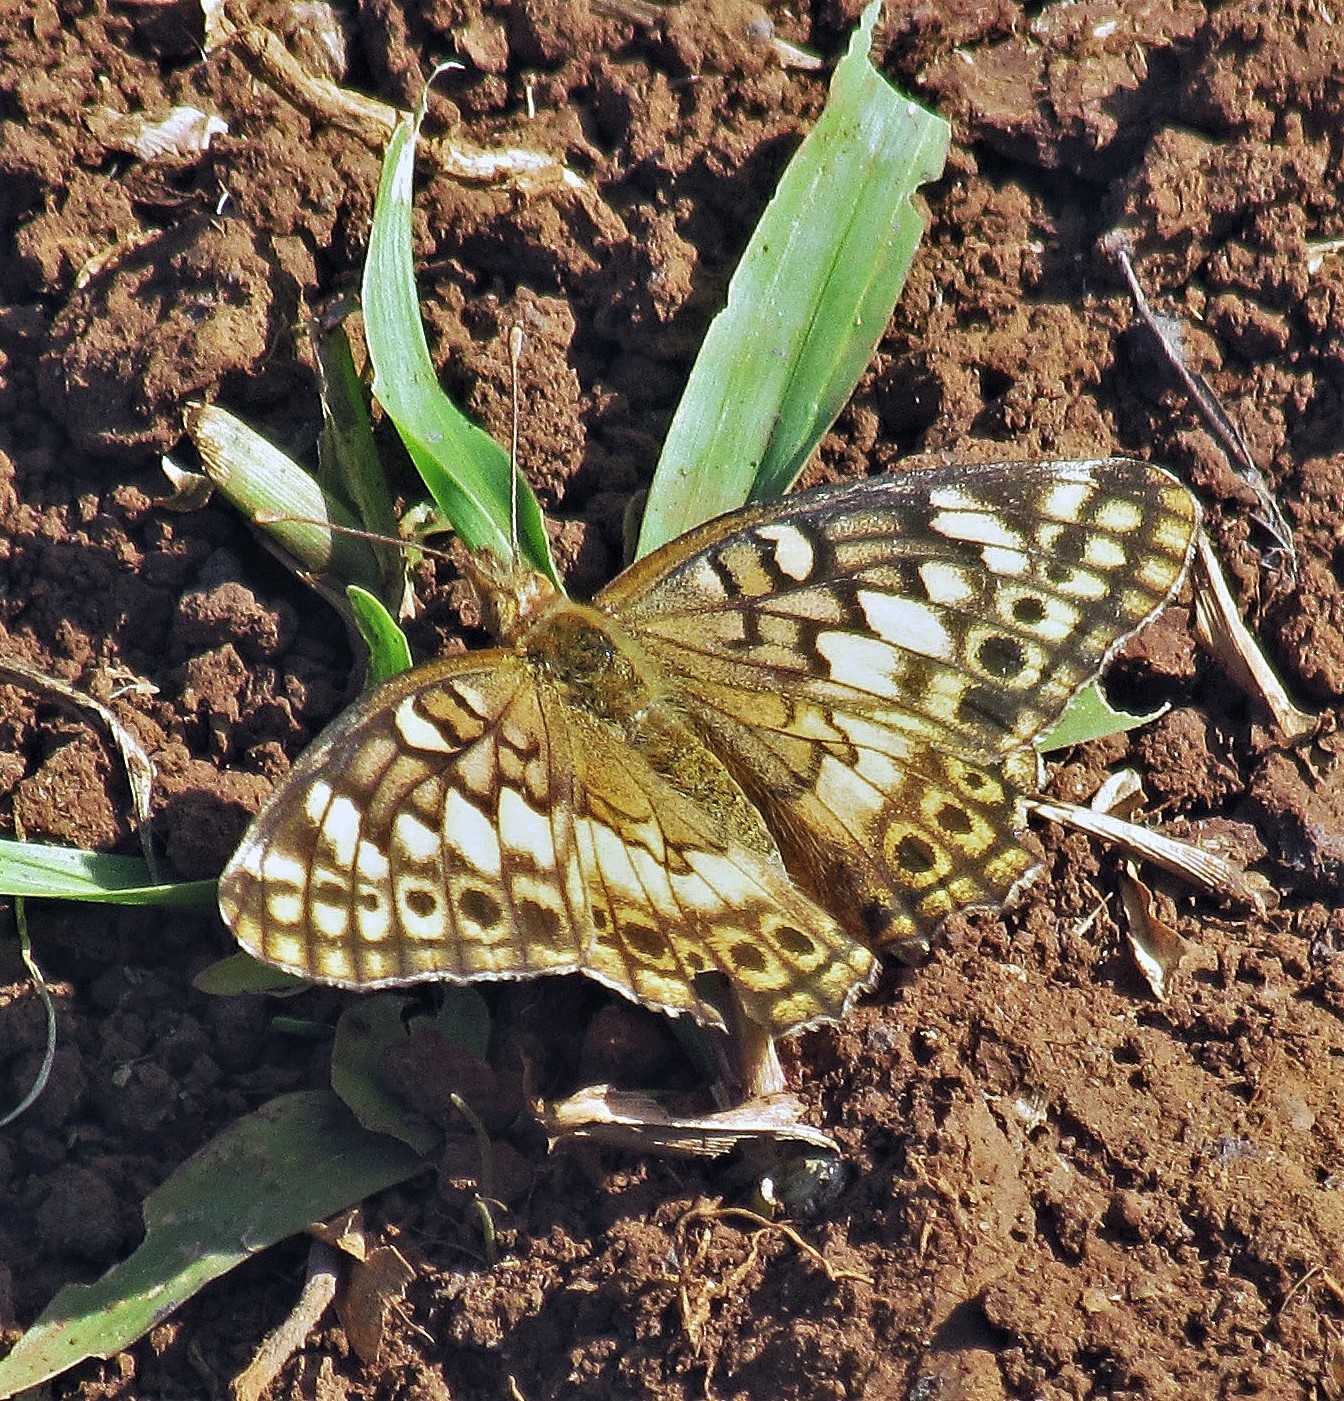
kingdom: Animalia
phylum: Arthropoda
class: Insecta
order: Lepidoptera
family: Nymphalidae
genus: Euptoieta
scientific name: Euptoieta hortensia
